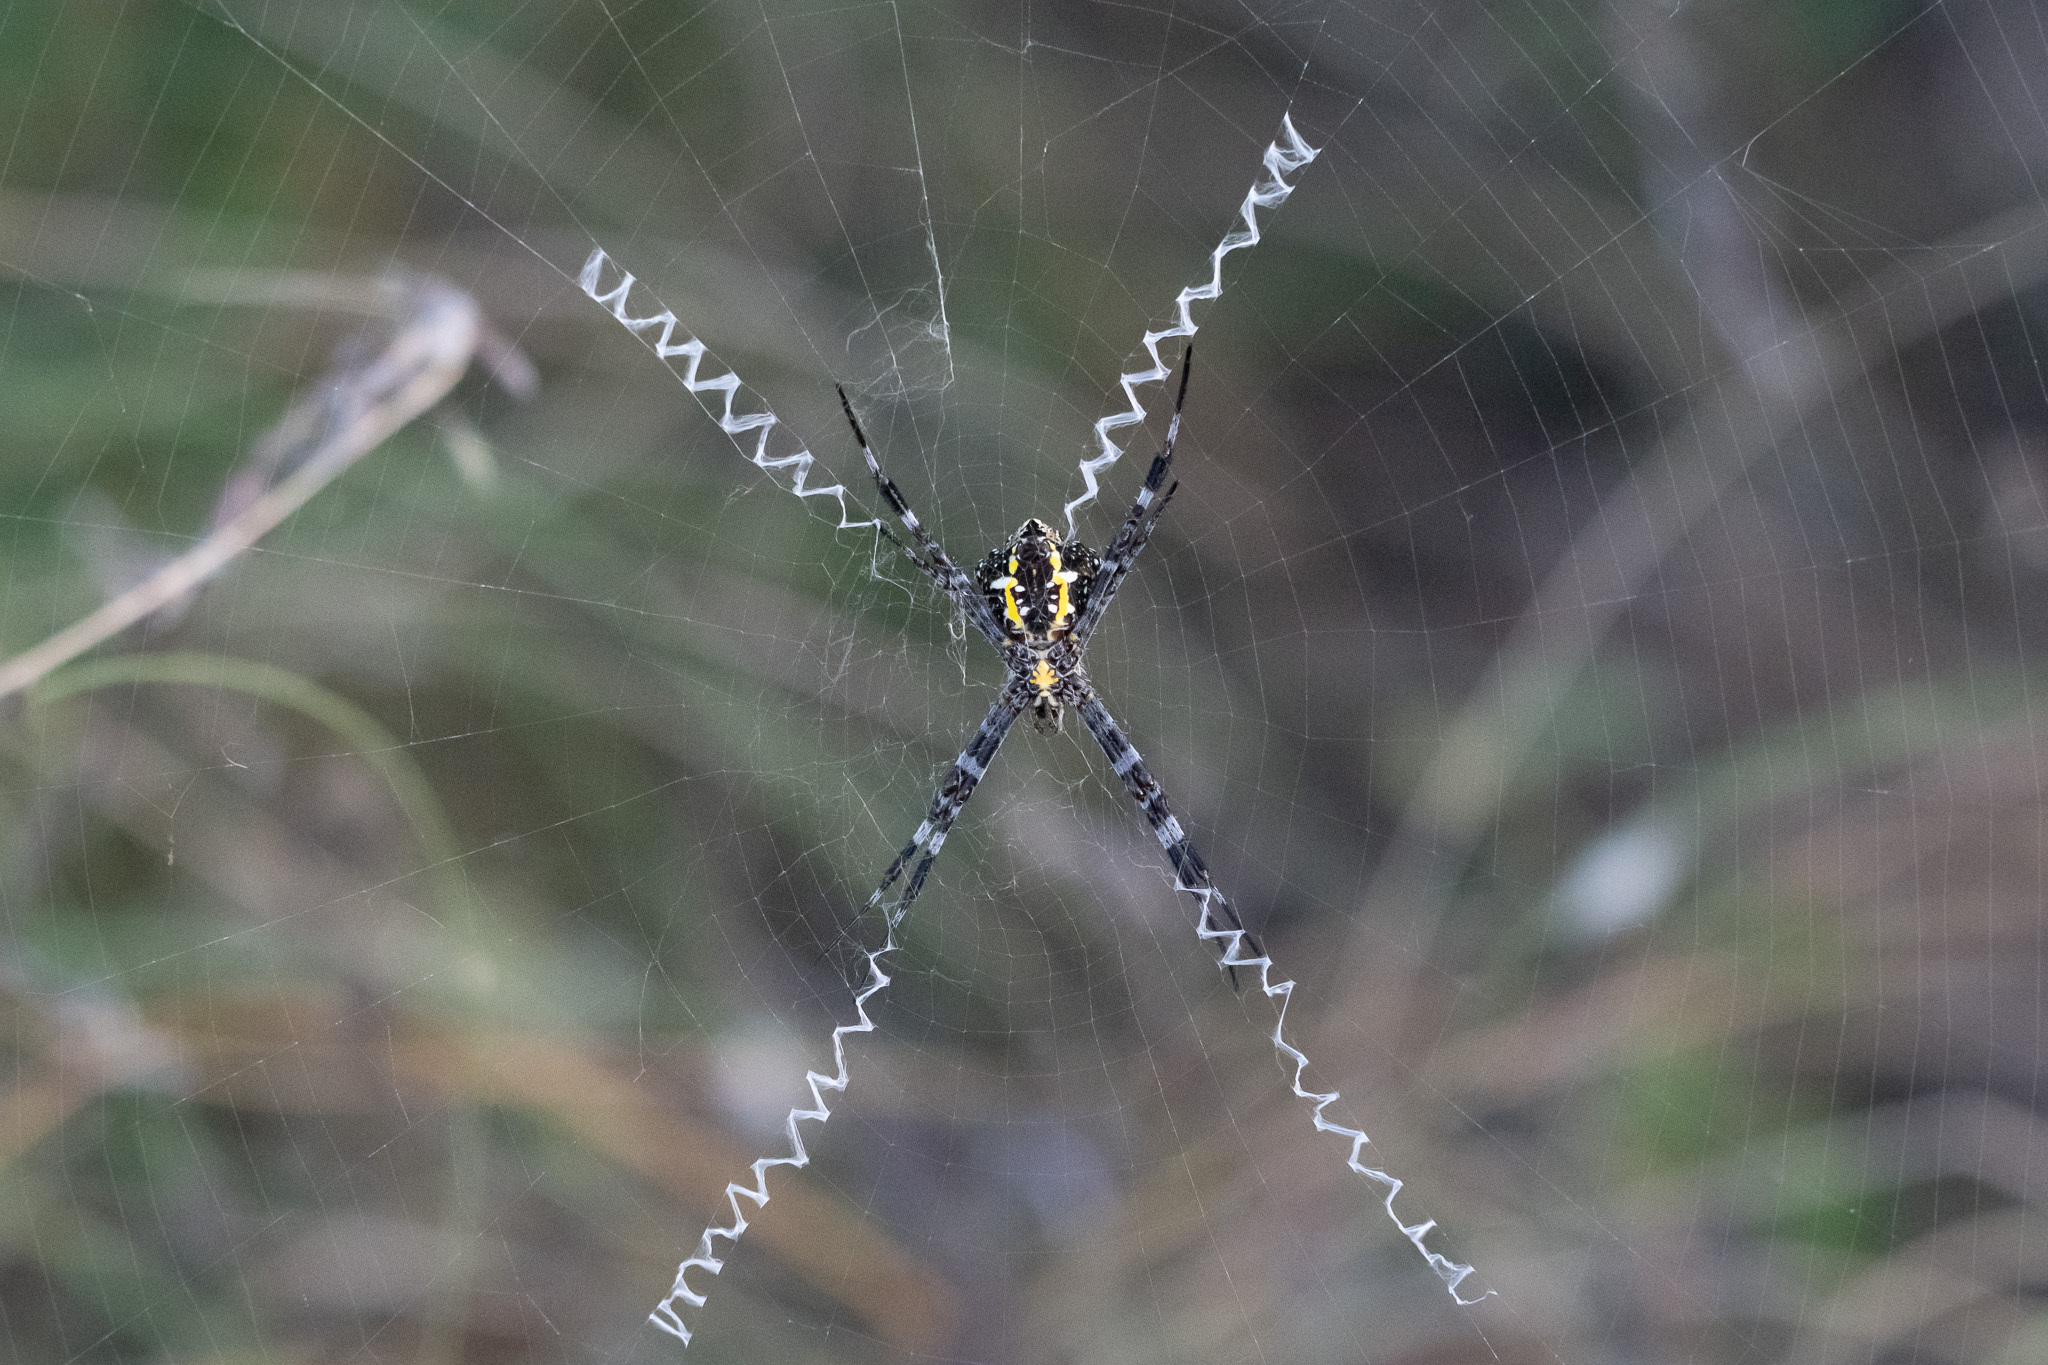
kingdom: Animalia
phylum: Arthropoda
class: Arachnida
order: Araneae
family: Araneidae
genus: Argiope
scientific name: Argiope appensa
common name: Garden spider
